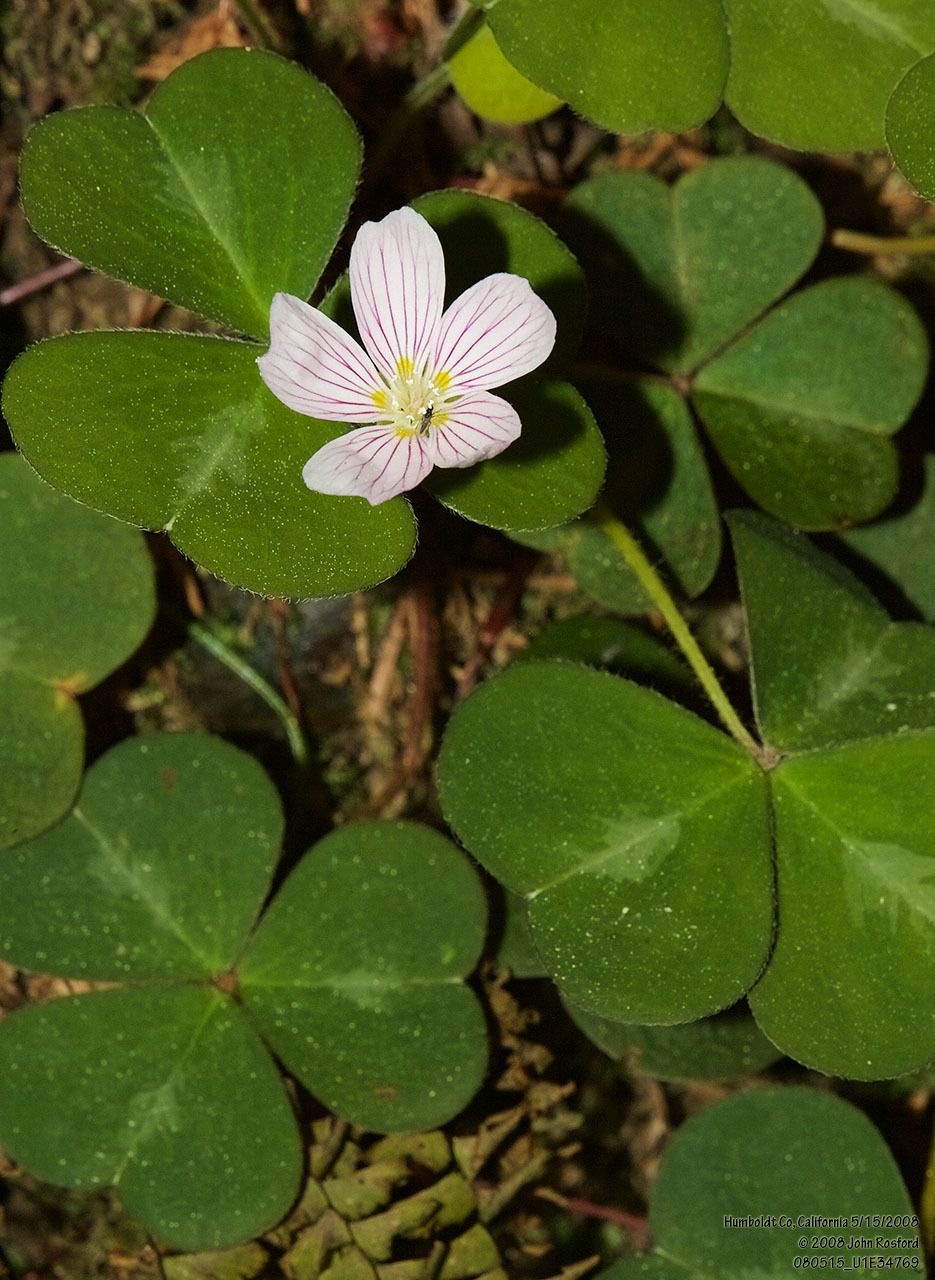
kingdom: Plantae
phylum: Tracheophyta
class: Magnoliopsida
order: Oxalidales
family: Oxalidaceae
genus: Oxalis
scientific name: Oxalis oregana
